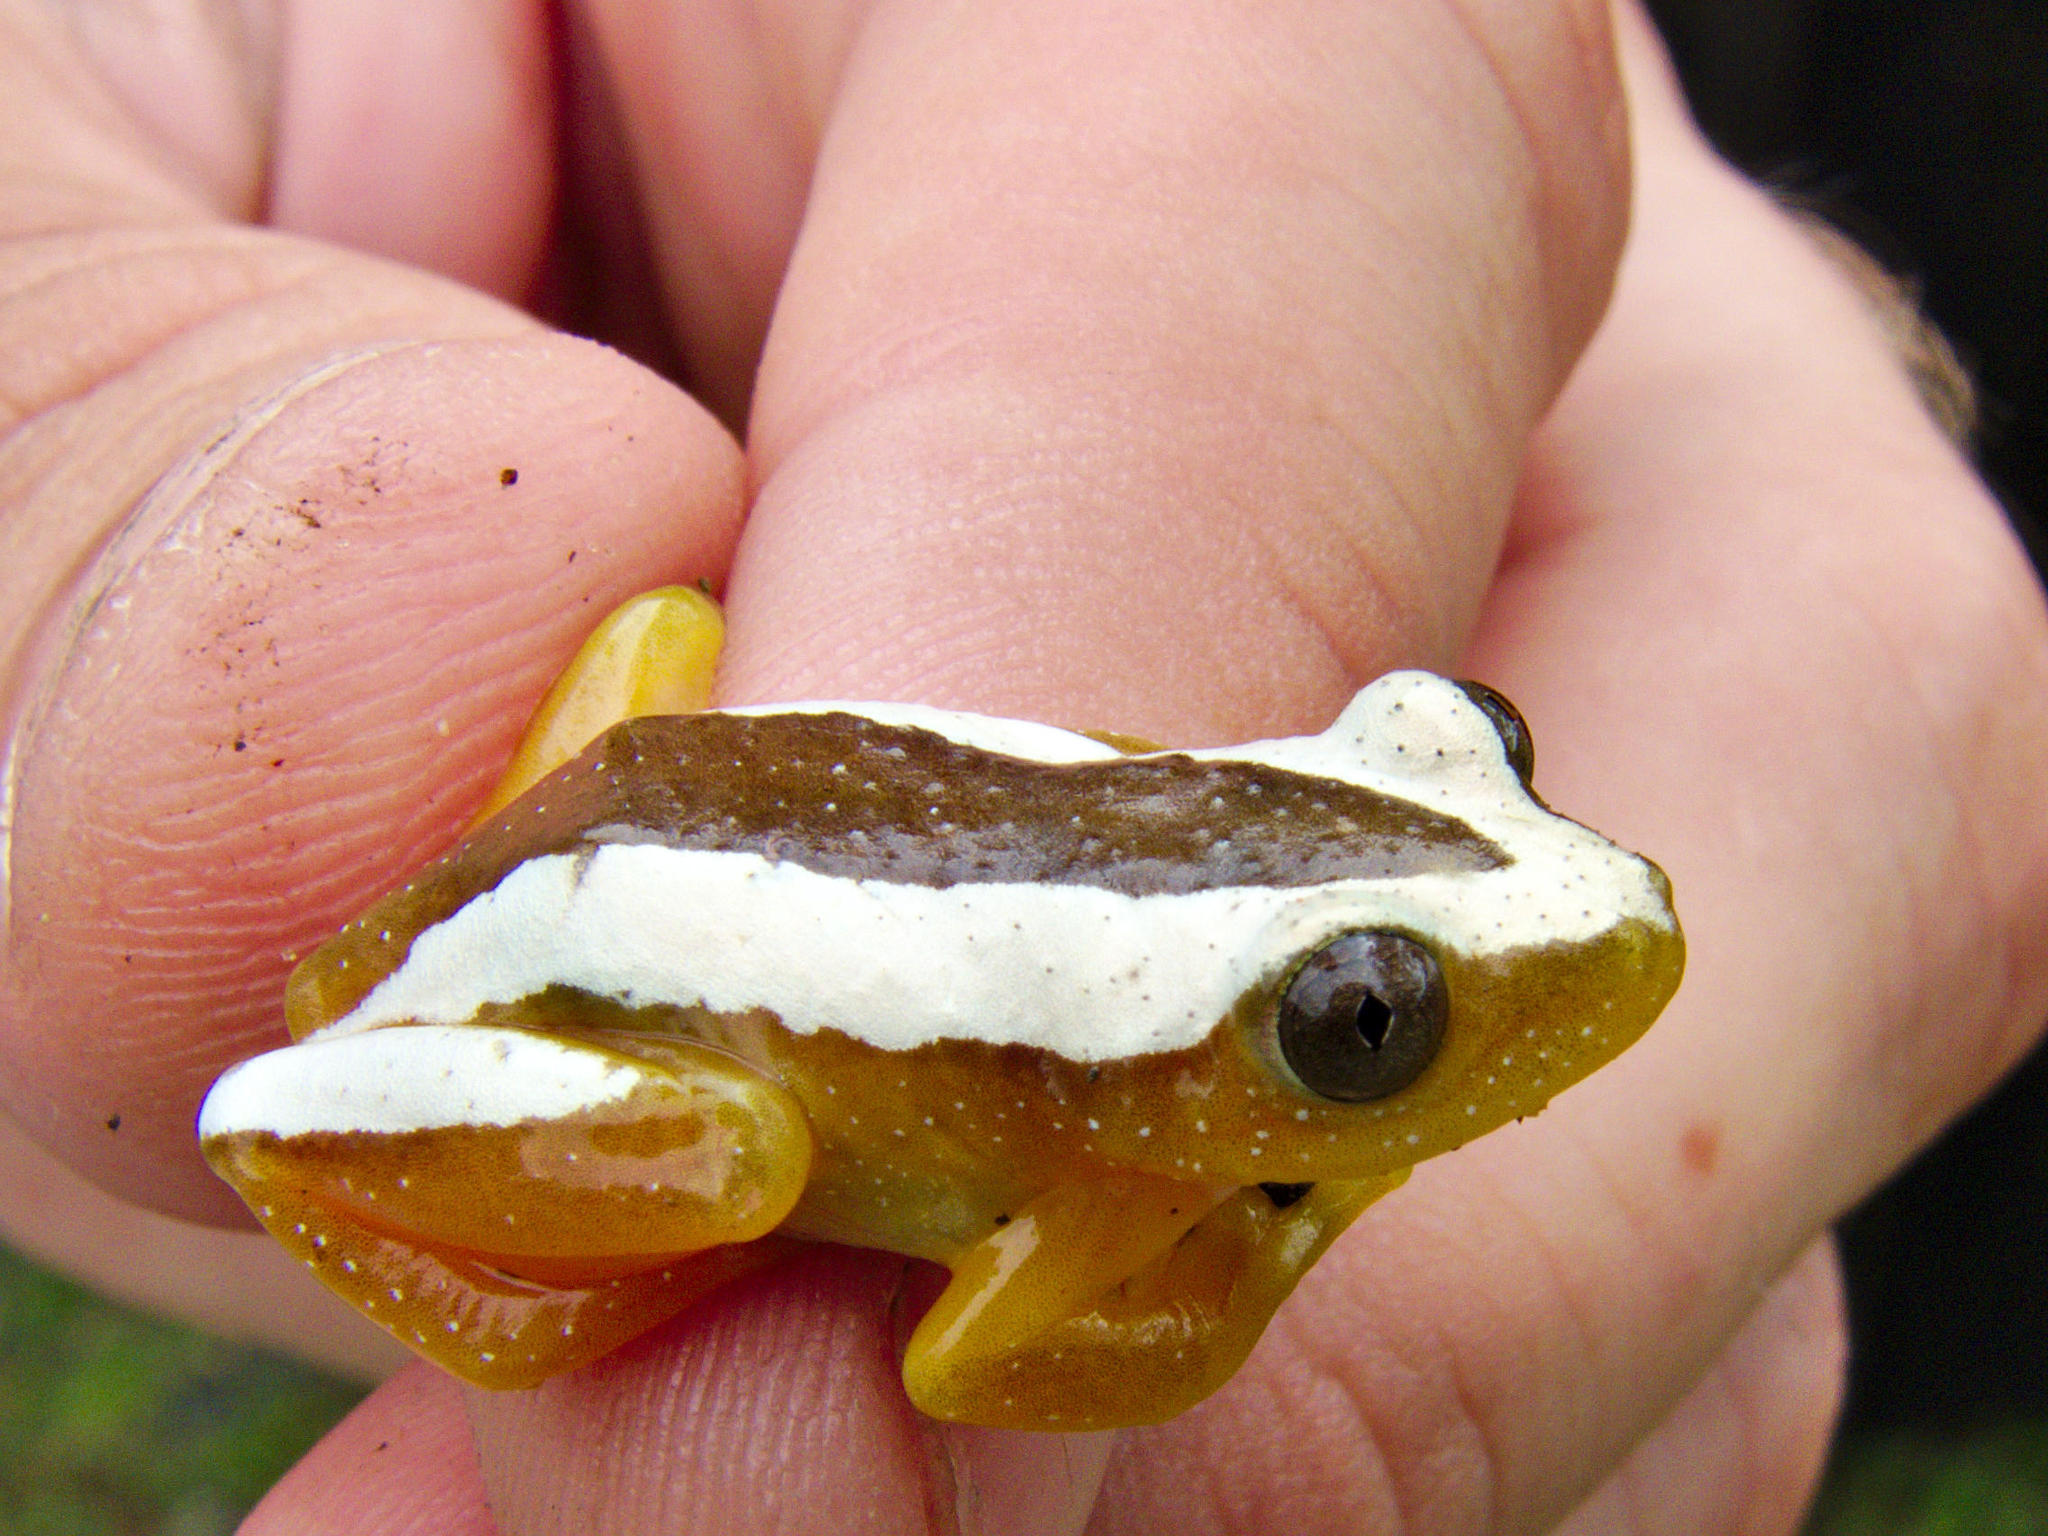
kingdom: Animalia
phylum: Chordata
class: Amphibia
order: Anura
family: Hyperoliidae
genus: Afrixalus
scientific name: Afrixalus fornasini
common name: Fornasini's spiny reed frog
